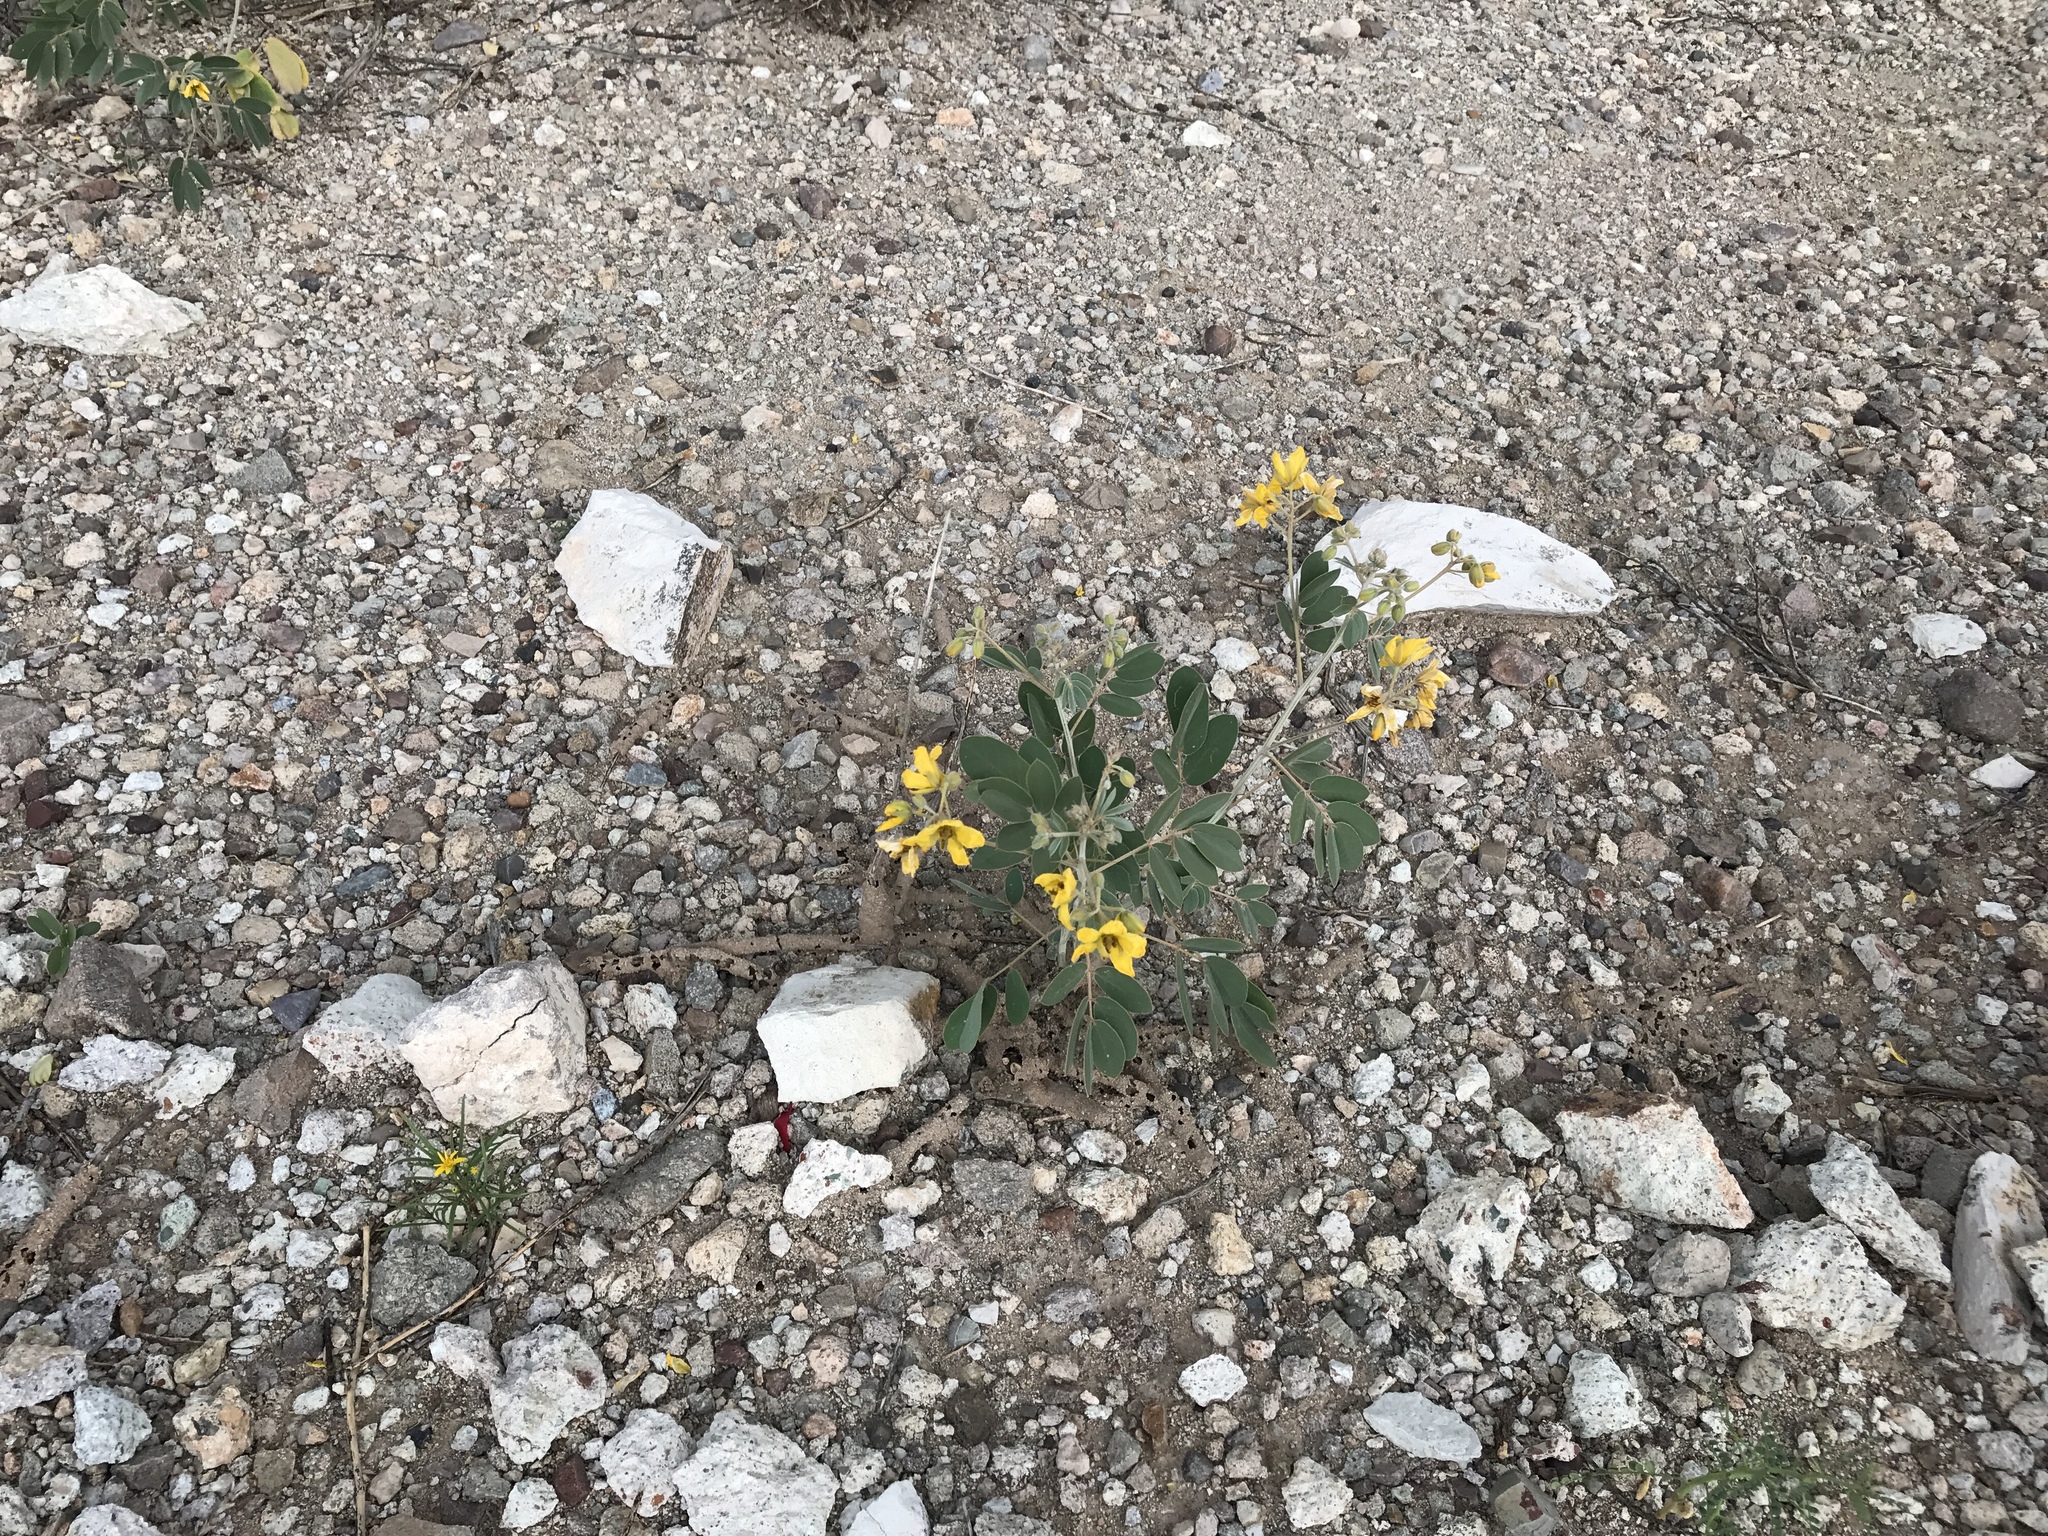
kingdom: Plantae
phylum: Tracheophyta
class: Magnoliopsida
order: Fabales
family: Fabaceae
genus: Senna
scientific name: Senna covesii
